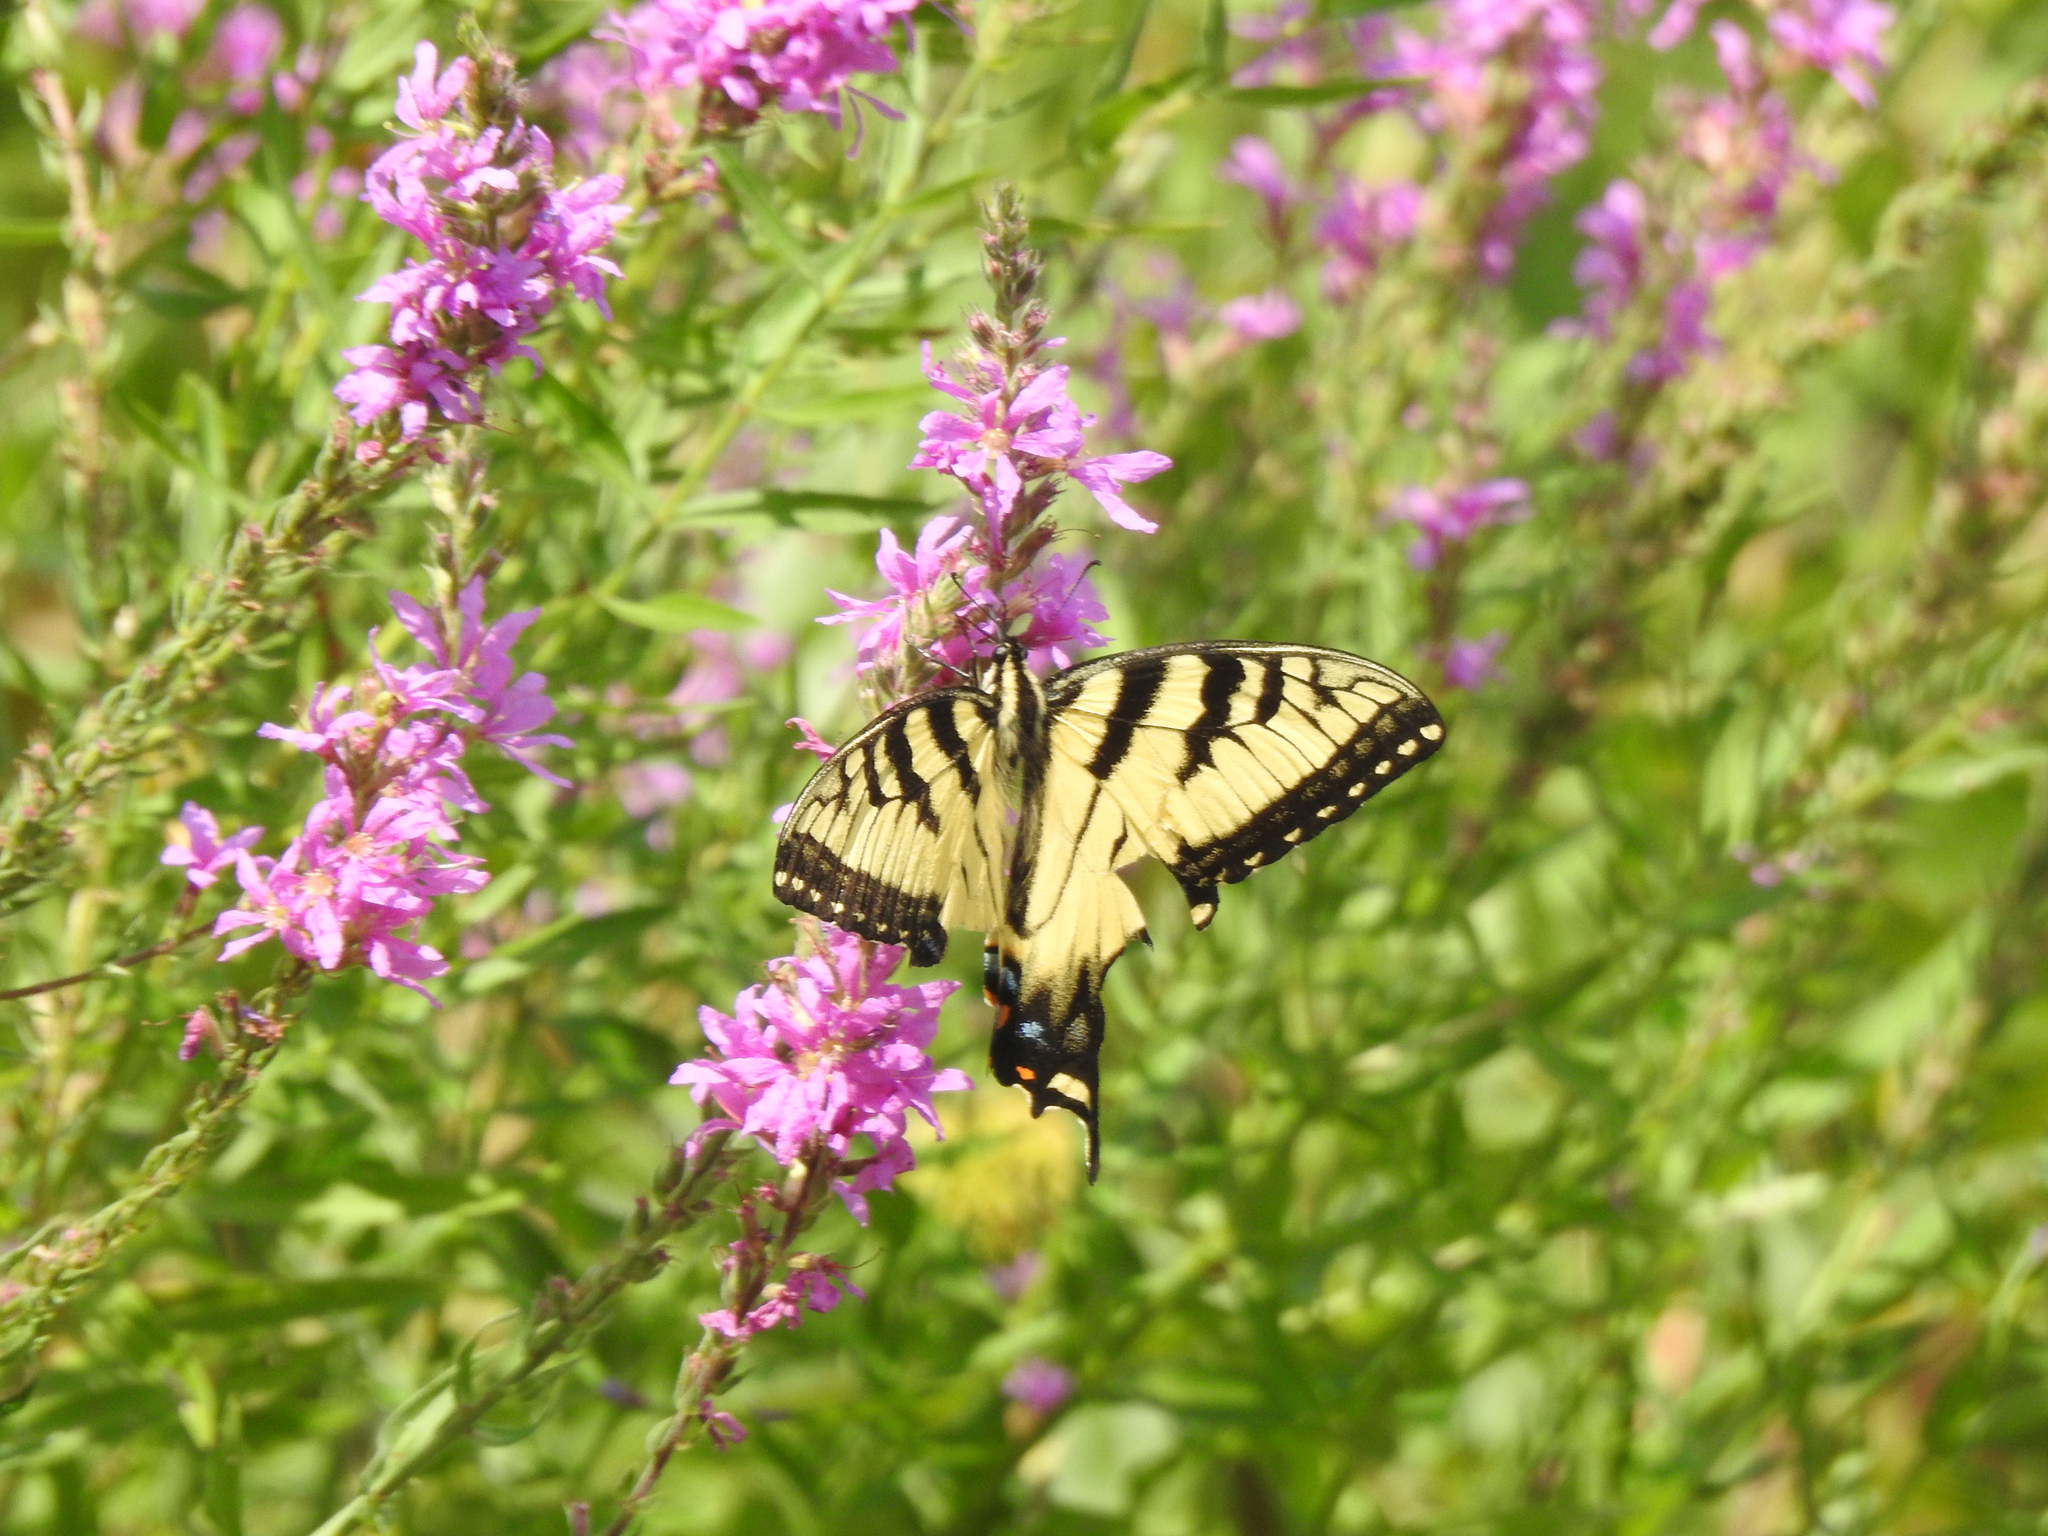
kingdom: Animalia
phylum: Arthropoda
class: Insecta
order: Lepidoptera
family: Papilionidae
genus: Papilio
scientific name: Papilio glaucus
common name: Tiger swallowtail
